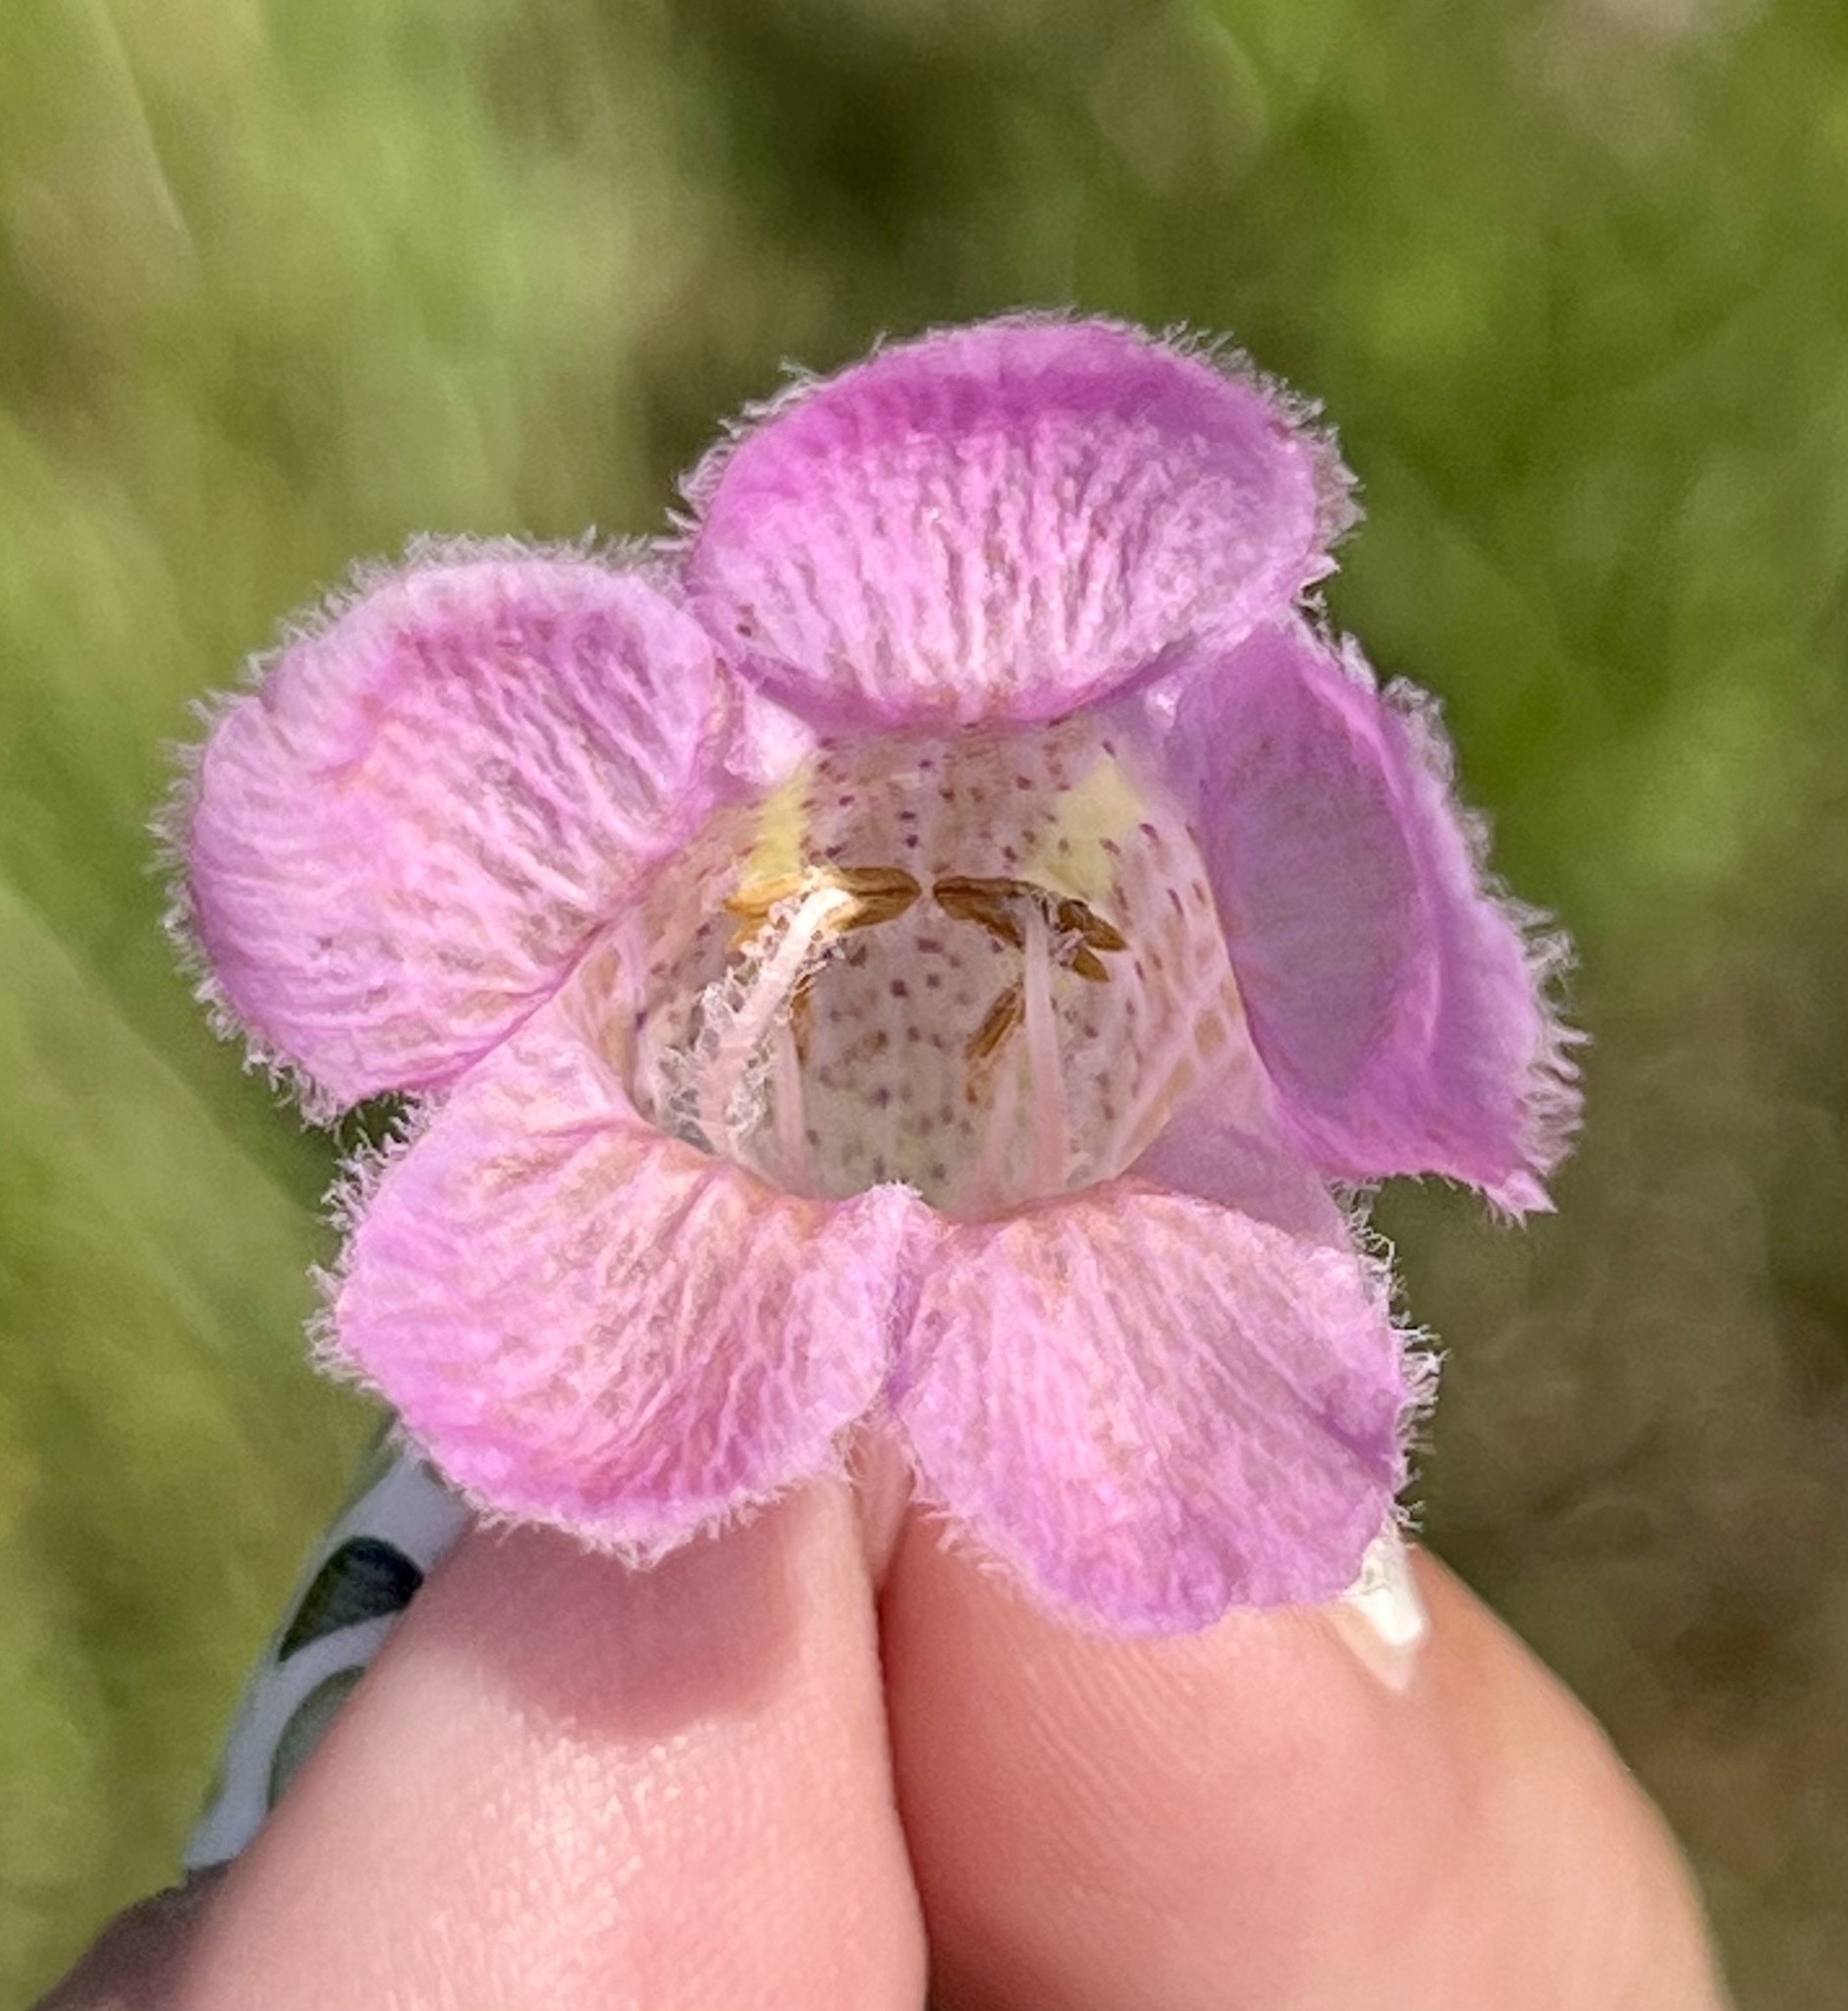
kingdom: Plantae
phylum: Tracheophyta
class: Magnoliopsida
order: Lamiales
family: Orobanchaceae
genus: Agalinis
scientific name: Agalinis heterophylla
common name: Prairie agalinis
